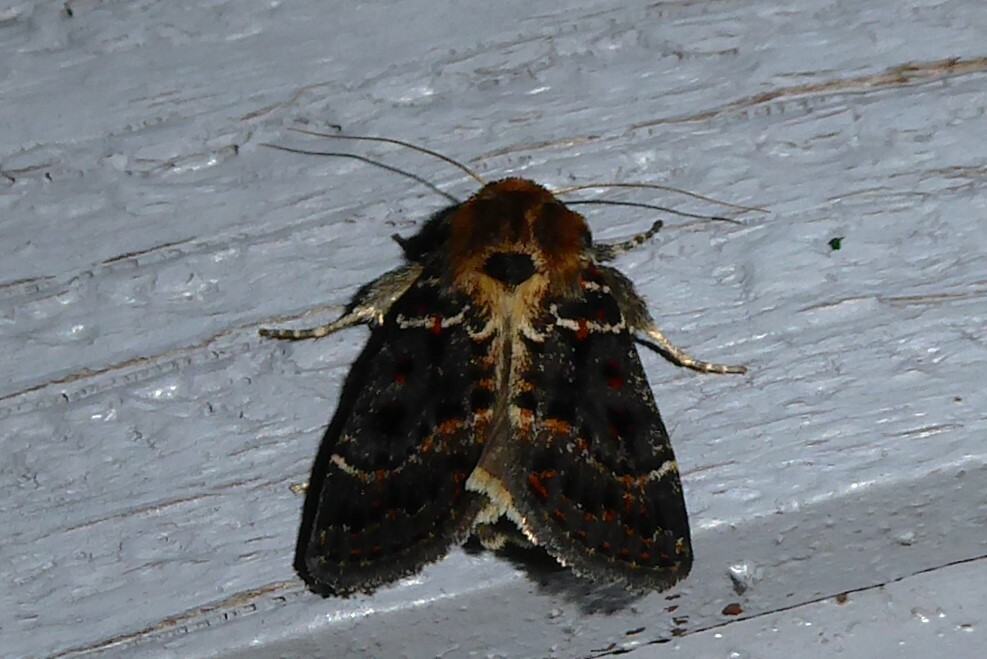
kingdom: Animalia
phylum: Arthropoda
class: Insecta
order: Lepidoptera
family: Noctuidae
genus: Proteuxoa
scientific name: Proteuxoa sanguinipuncta
